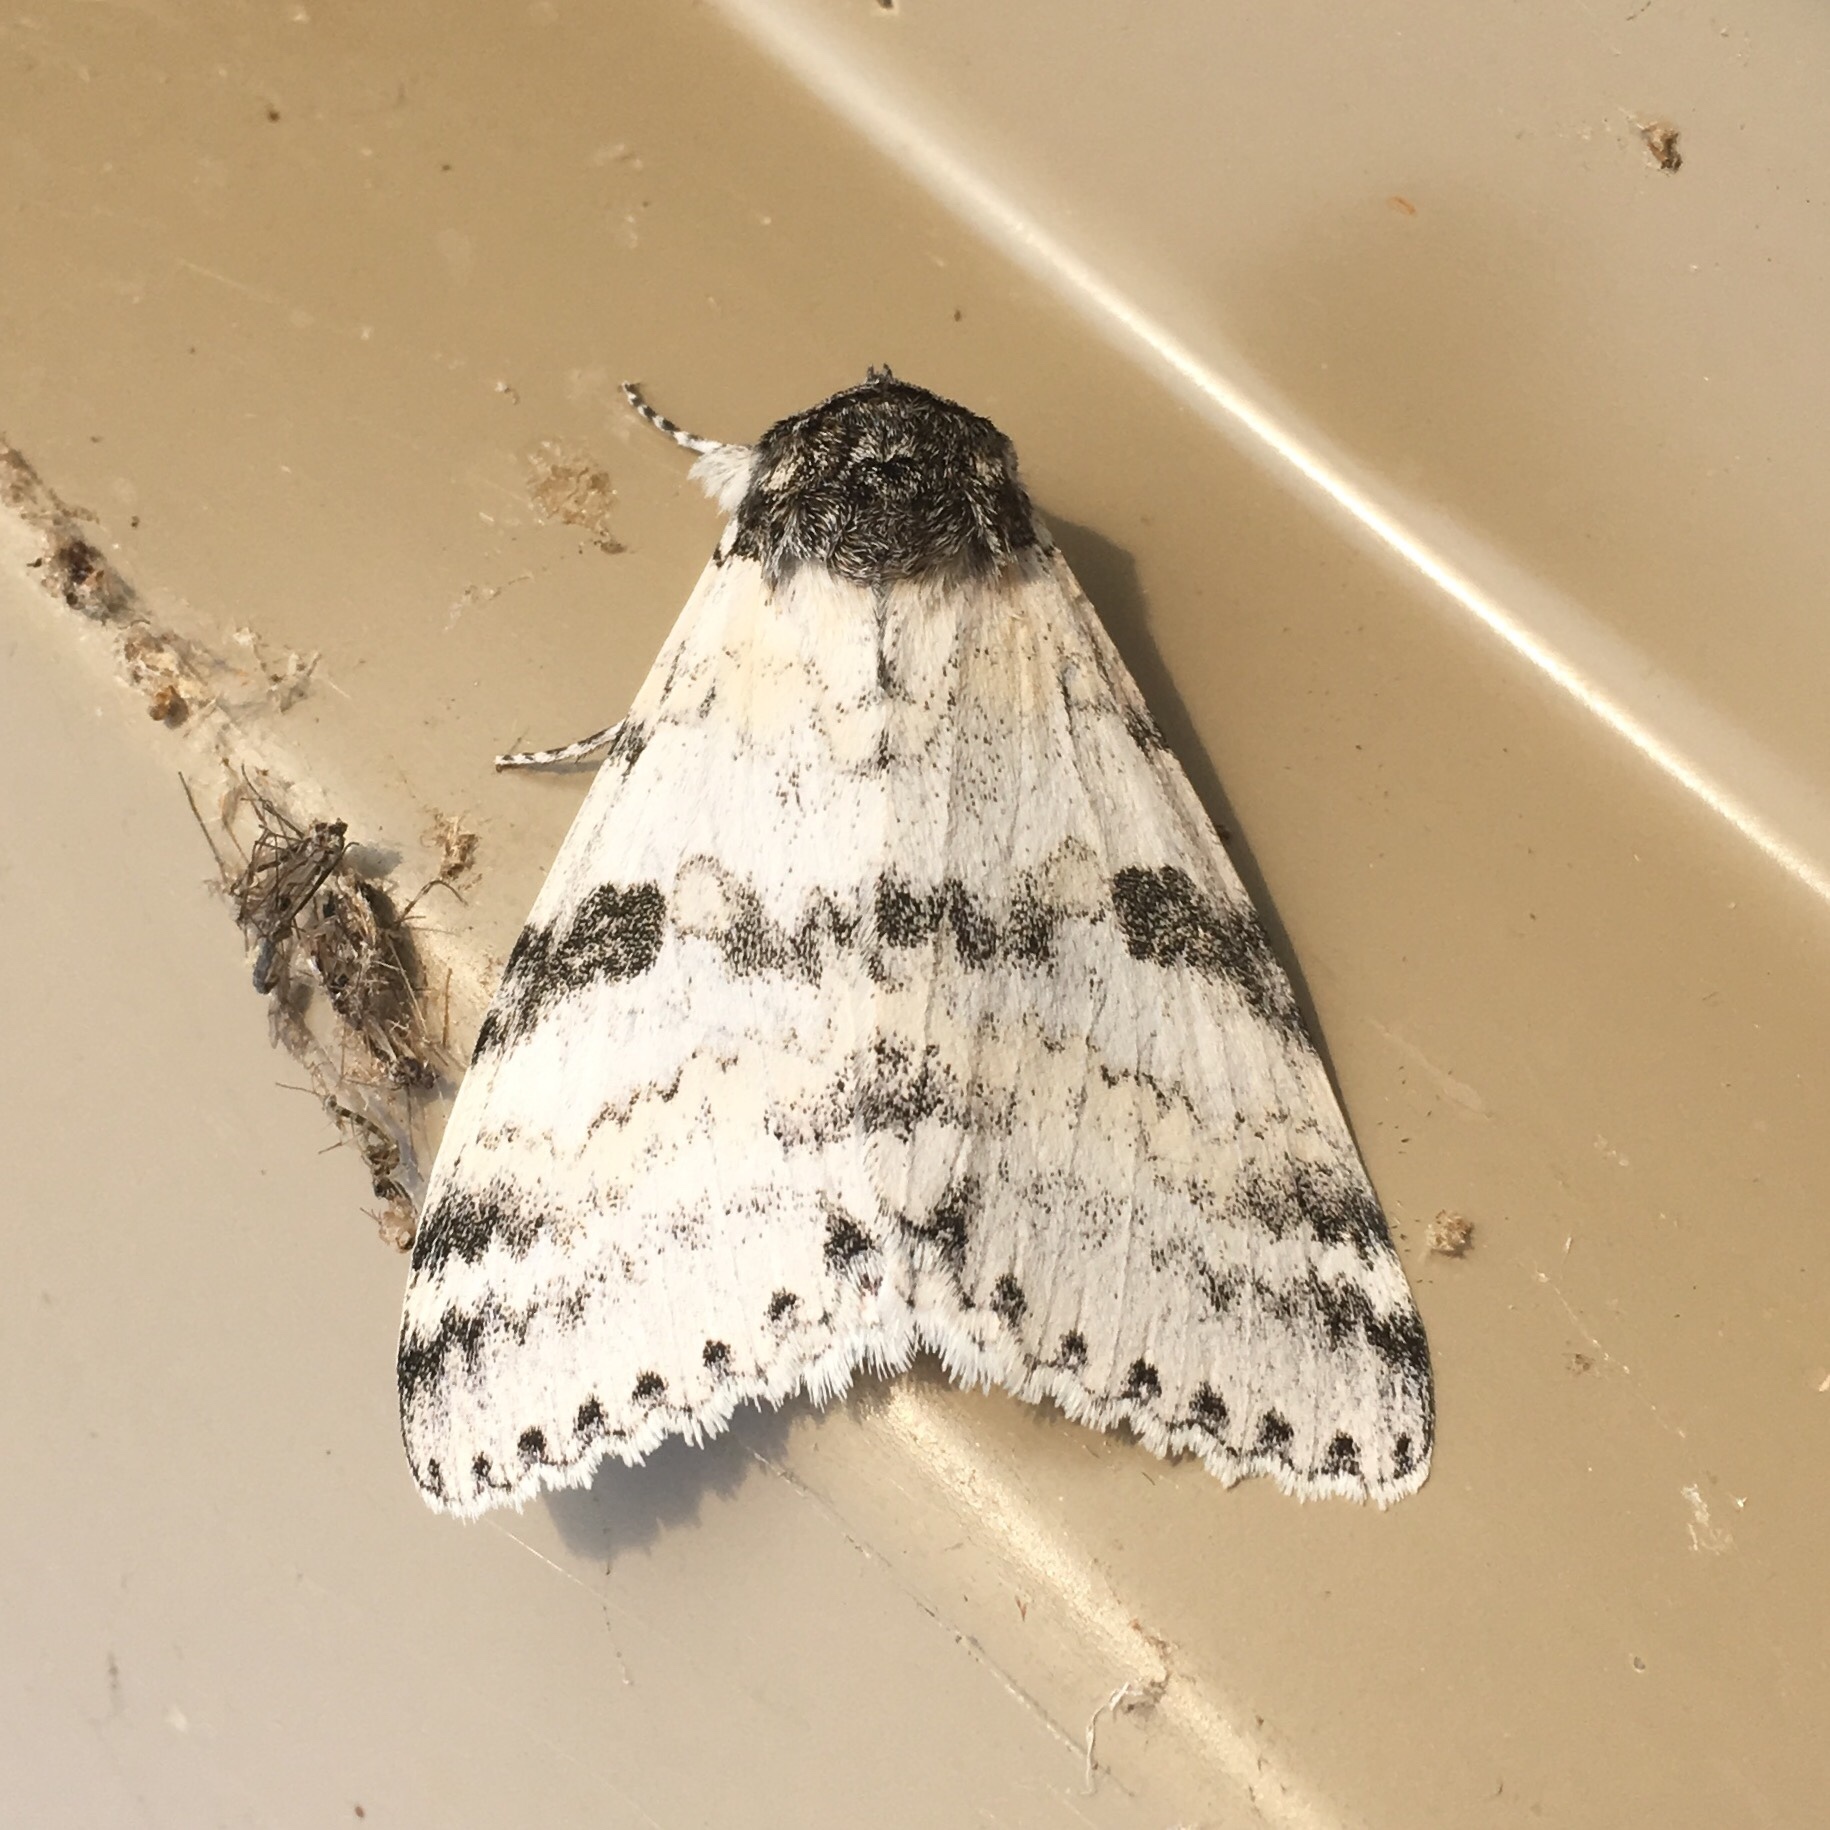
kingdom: Animalia
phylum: Arthropoda
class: Insecta
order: Lepidoptera
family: Erebidae
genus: Catocala
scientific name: Catocala relicta
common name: White underwing
